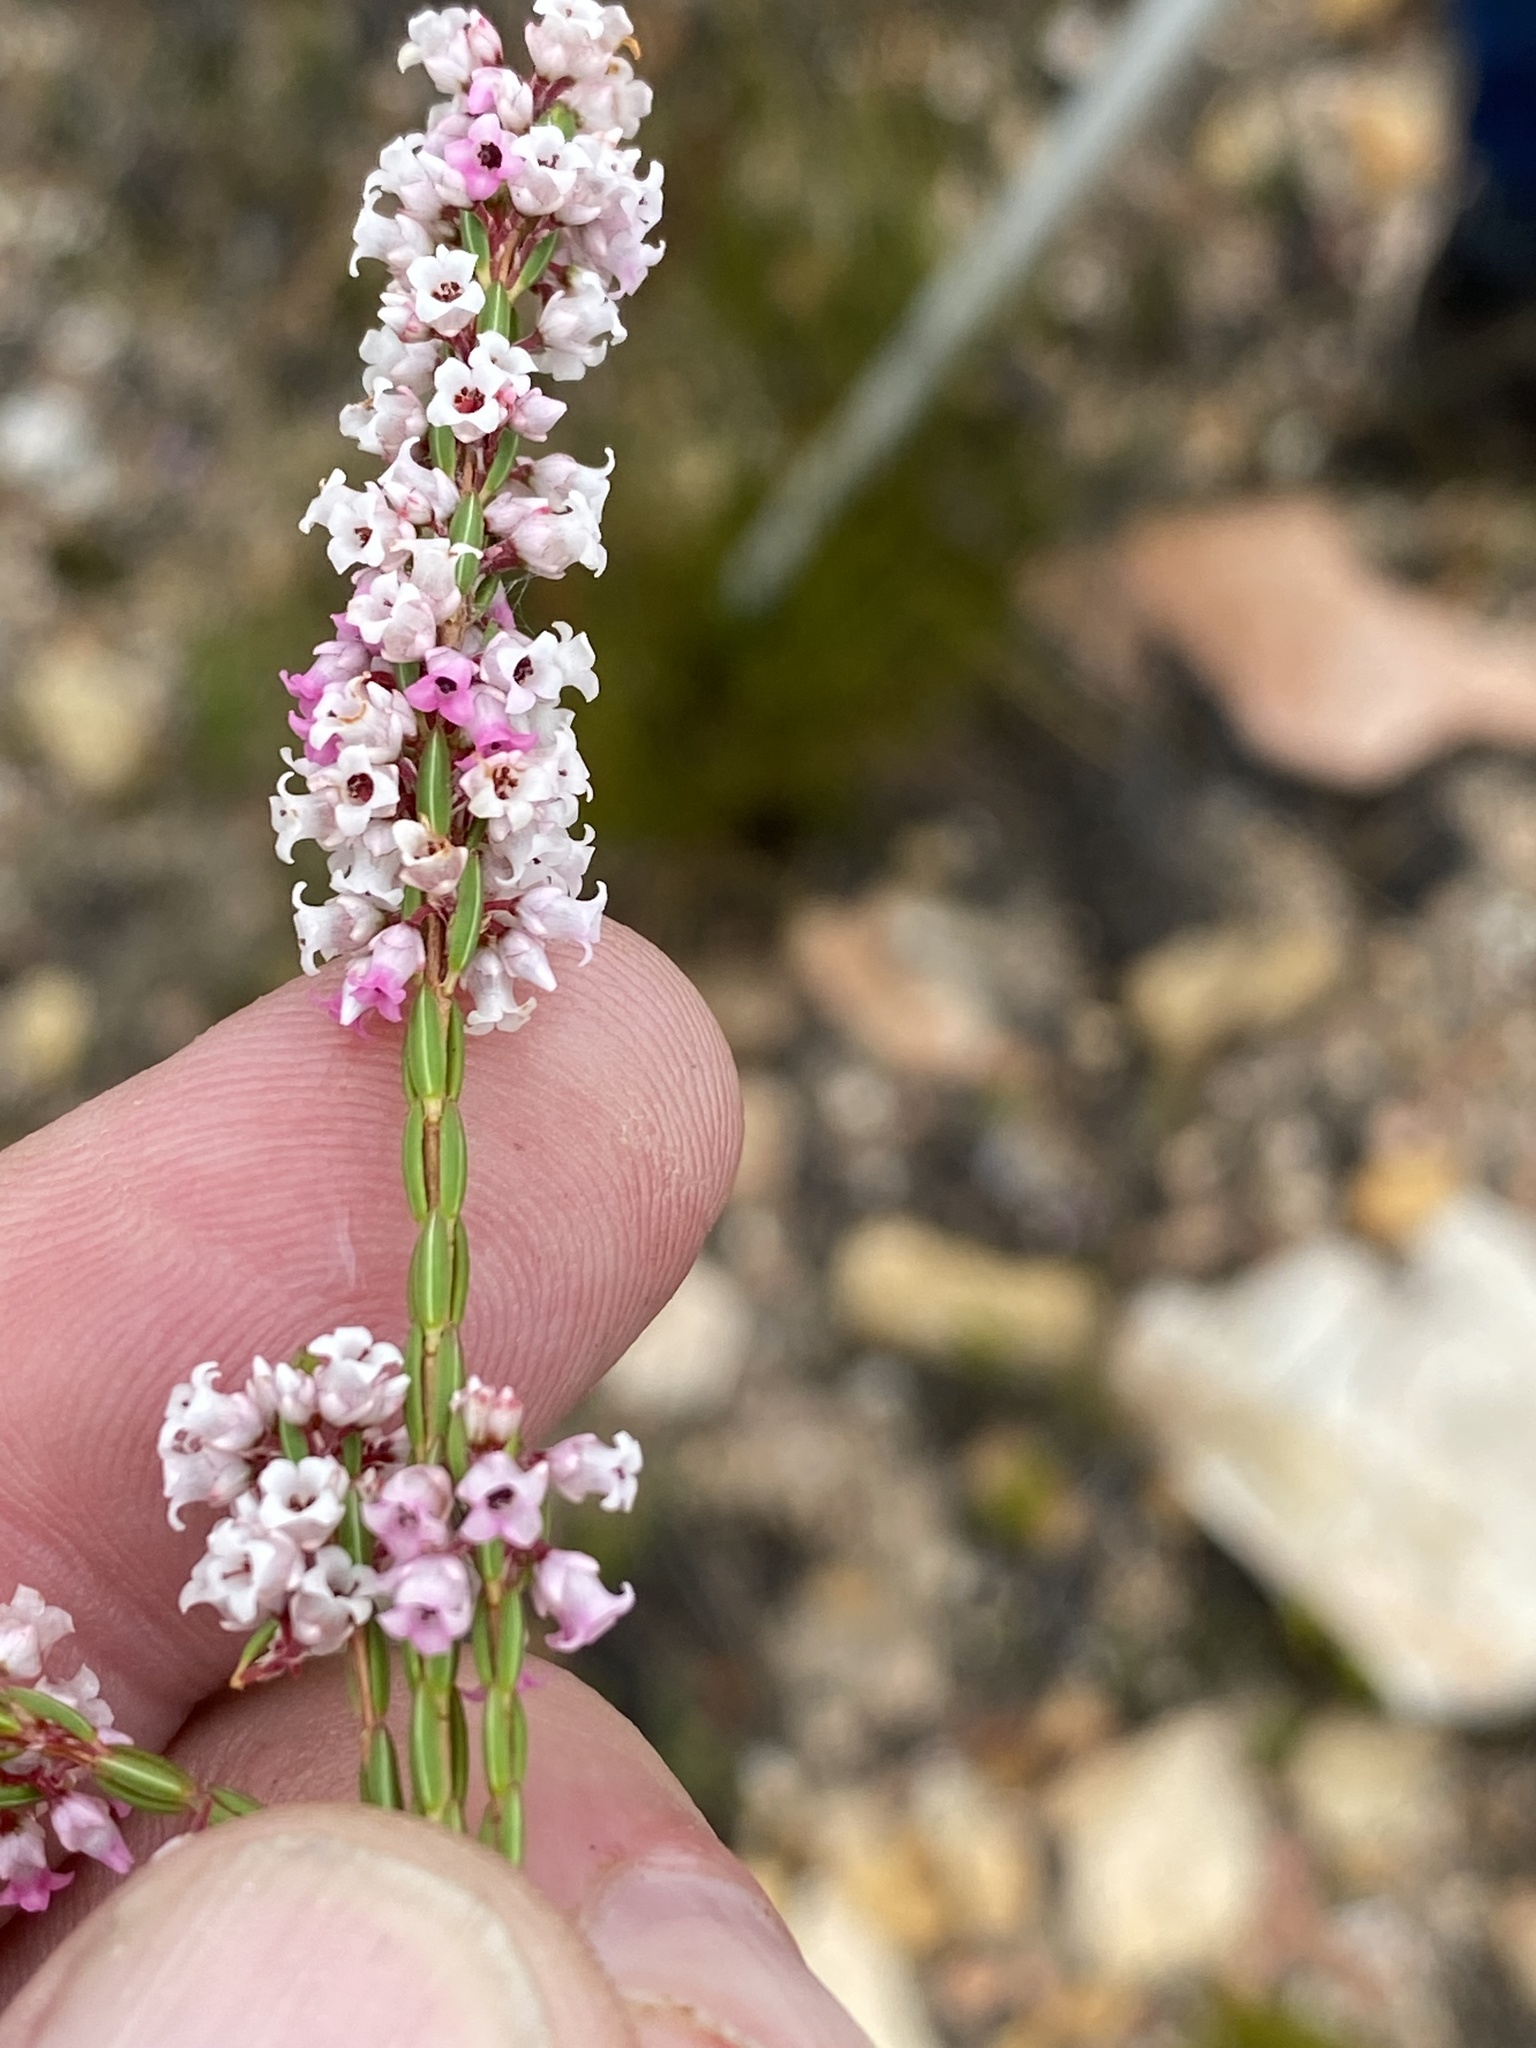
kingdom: Plantae
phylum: Tracheophyta
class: Magnoliopsida
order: Ericales
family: Ericaceae
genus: Erica
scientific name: Erica articularis
